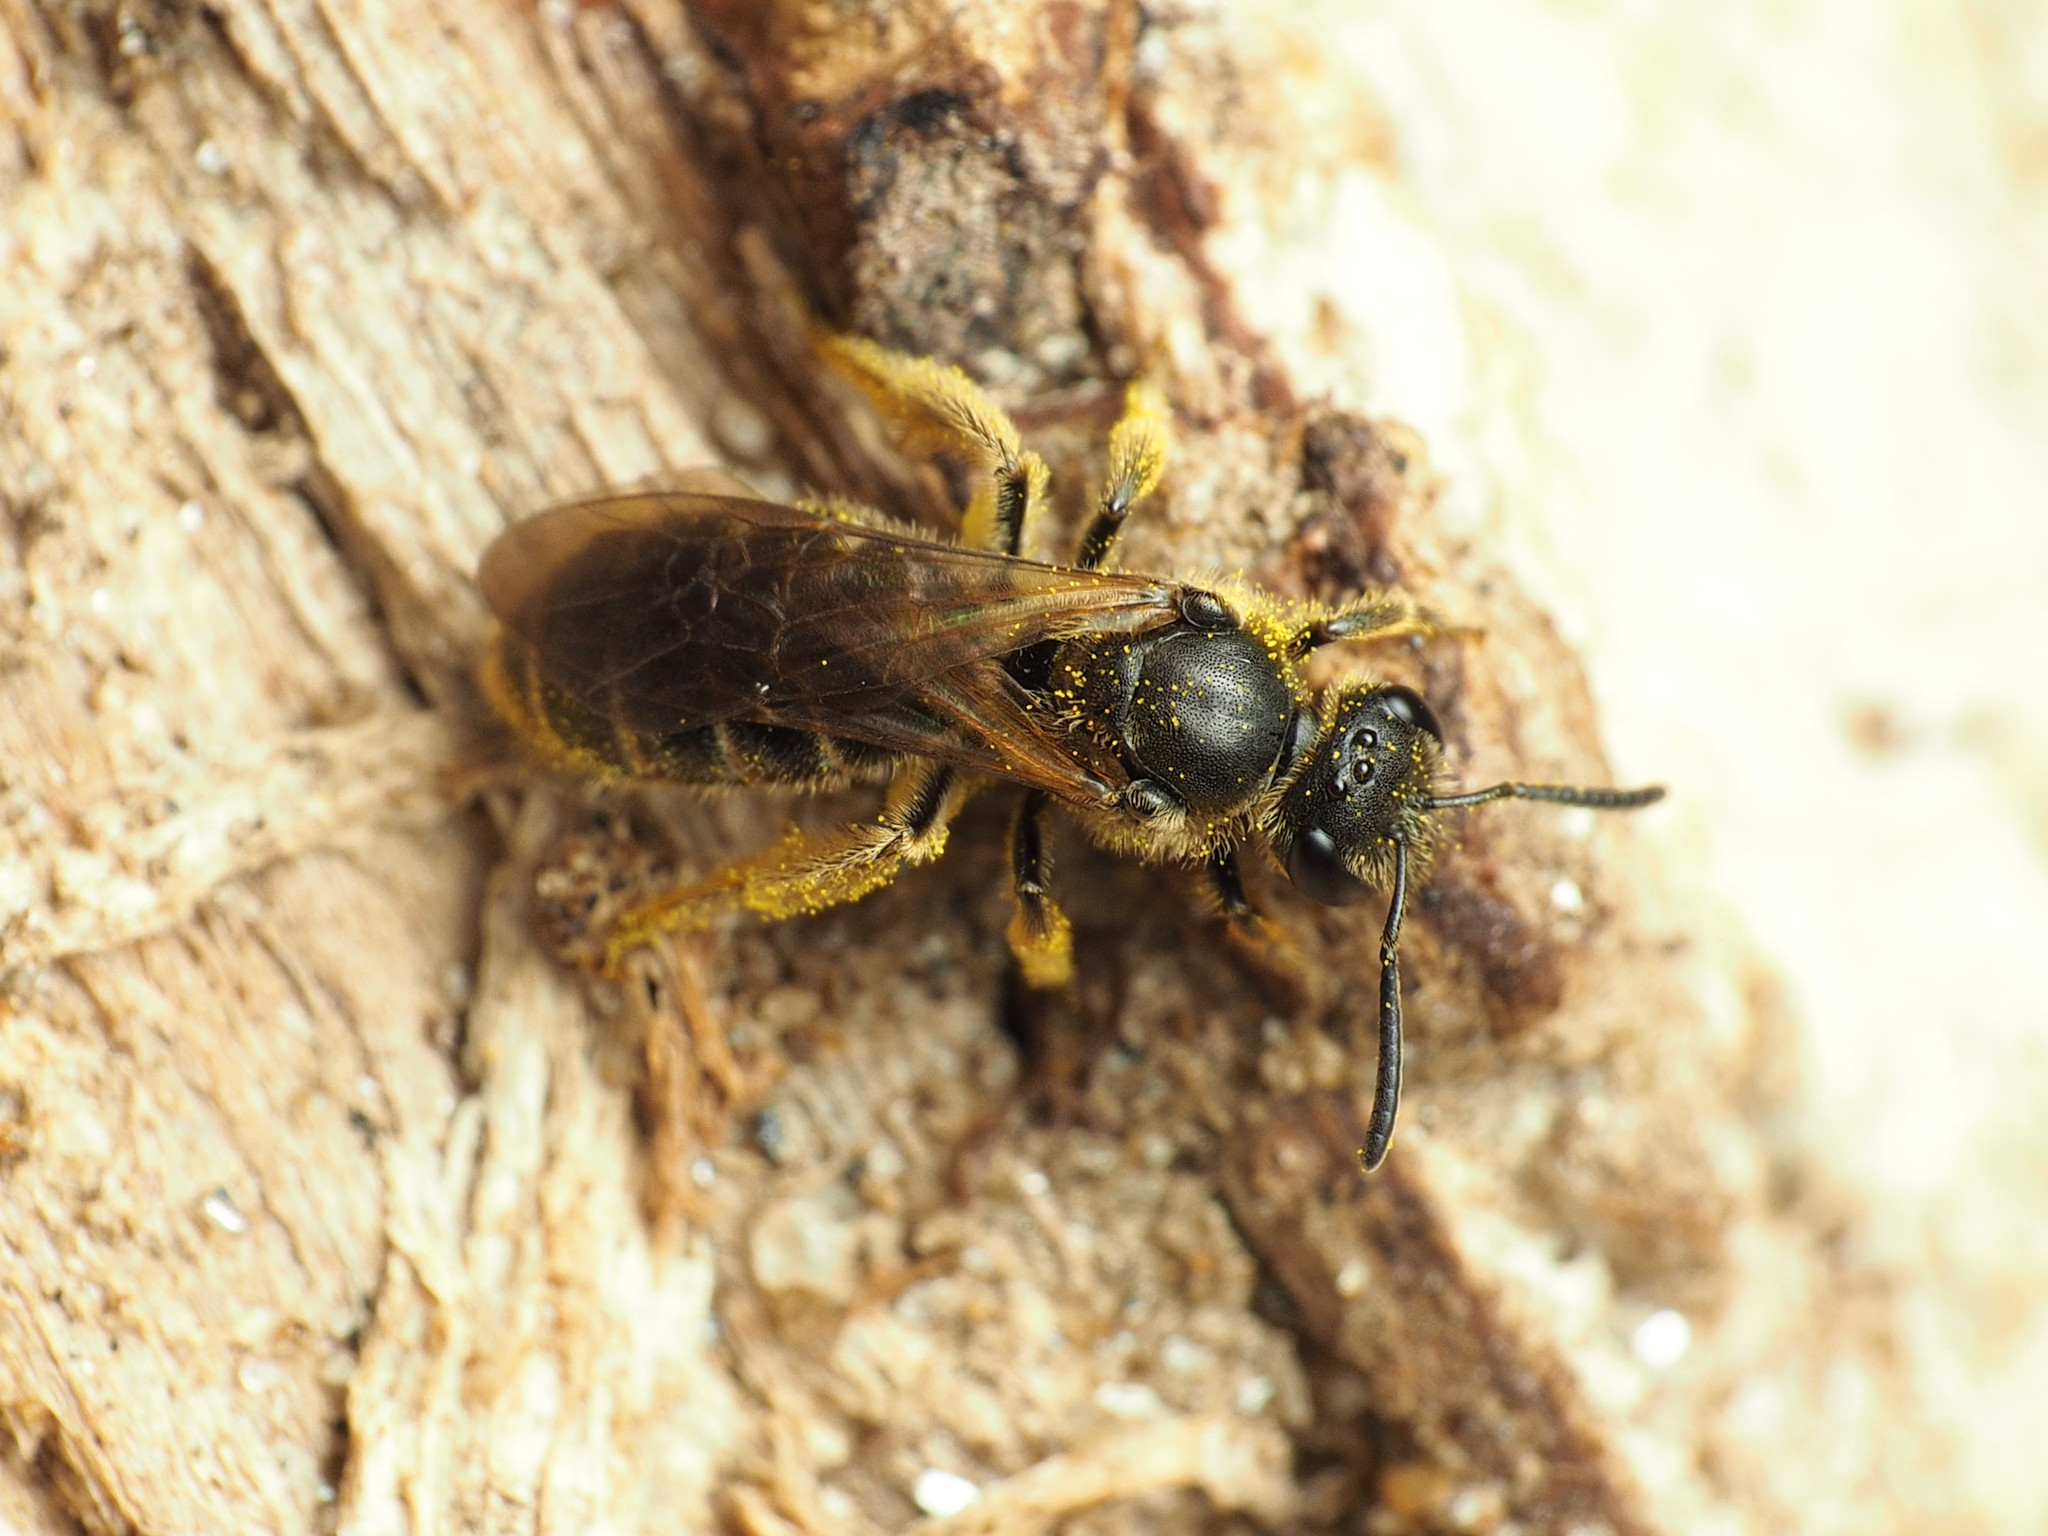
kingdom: Animalia
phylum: Arthropoda
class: Insecta
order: Hymenoptera
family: Halictidae
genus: Lasioglossum
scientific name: Lasioglossum quebecense
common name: Quebec sweat bee
